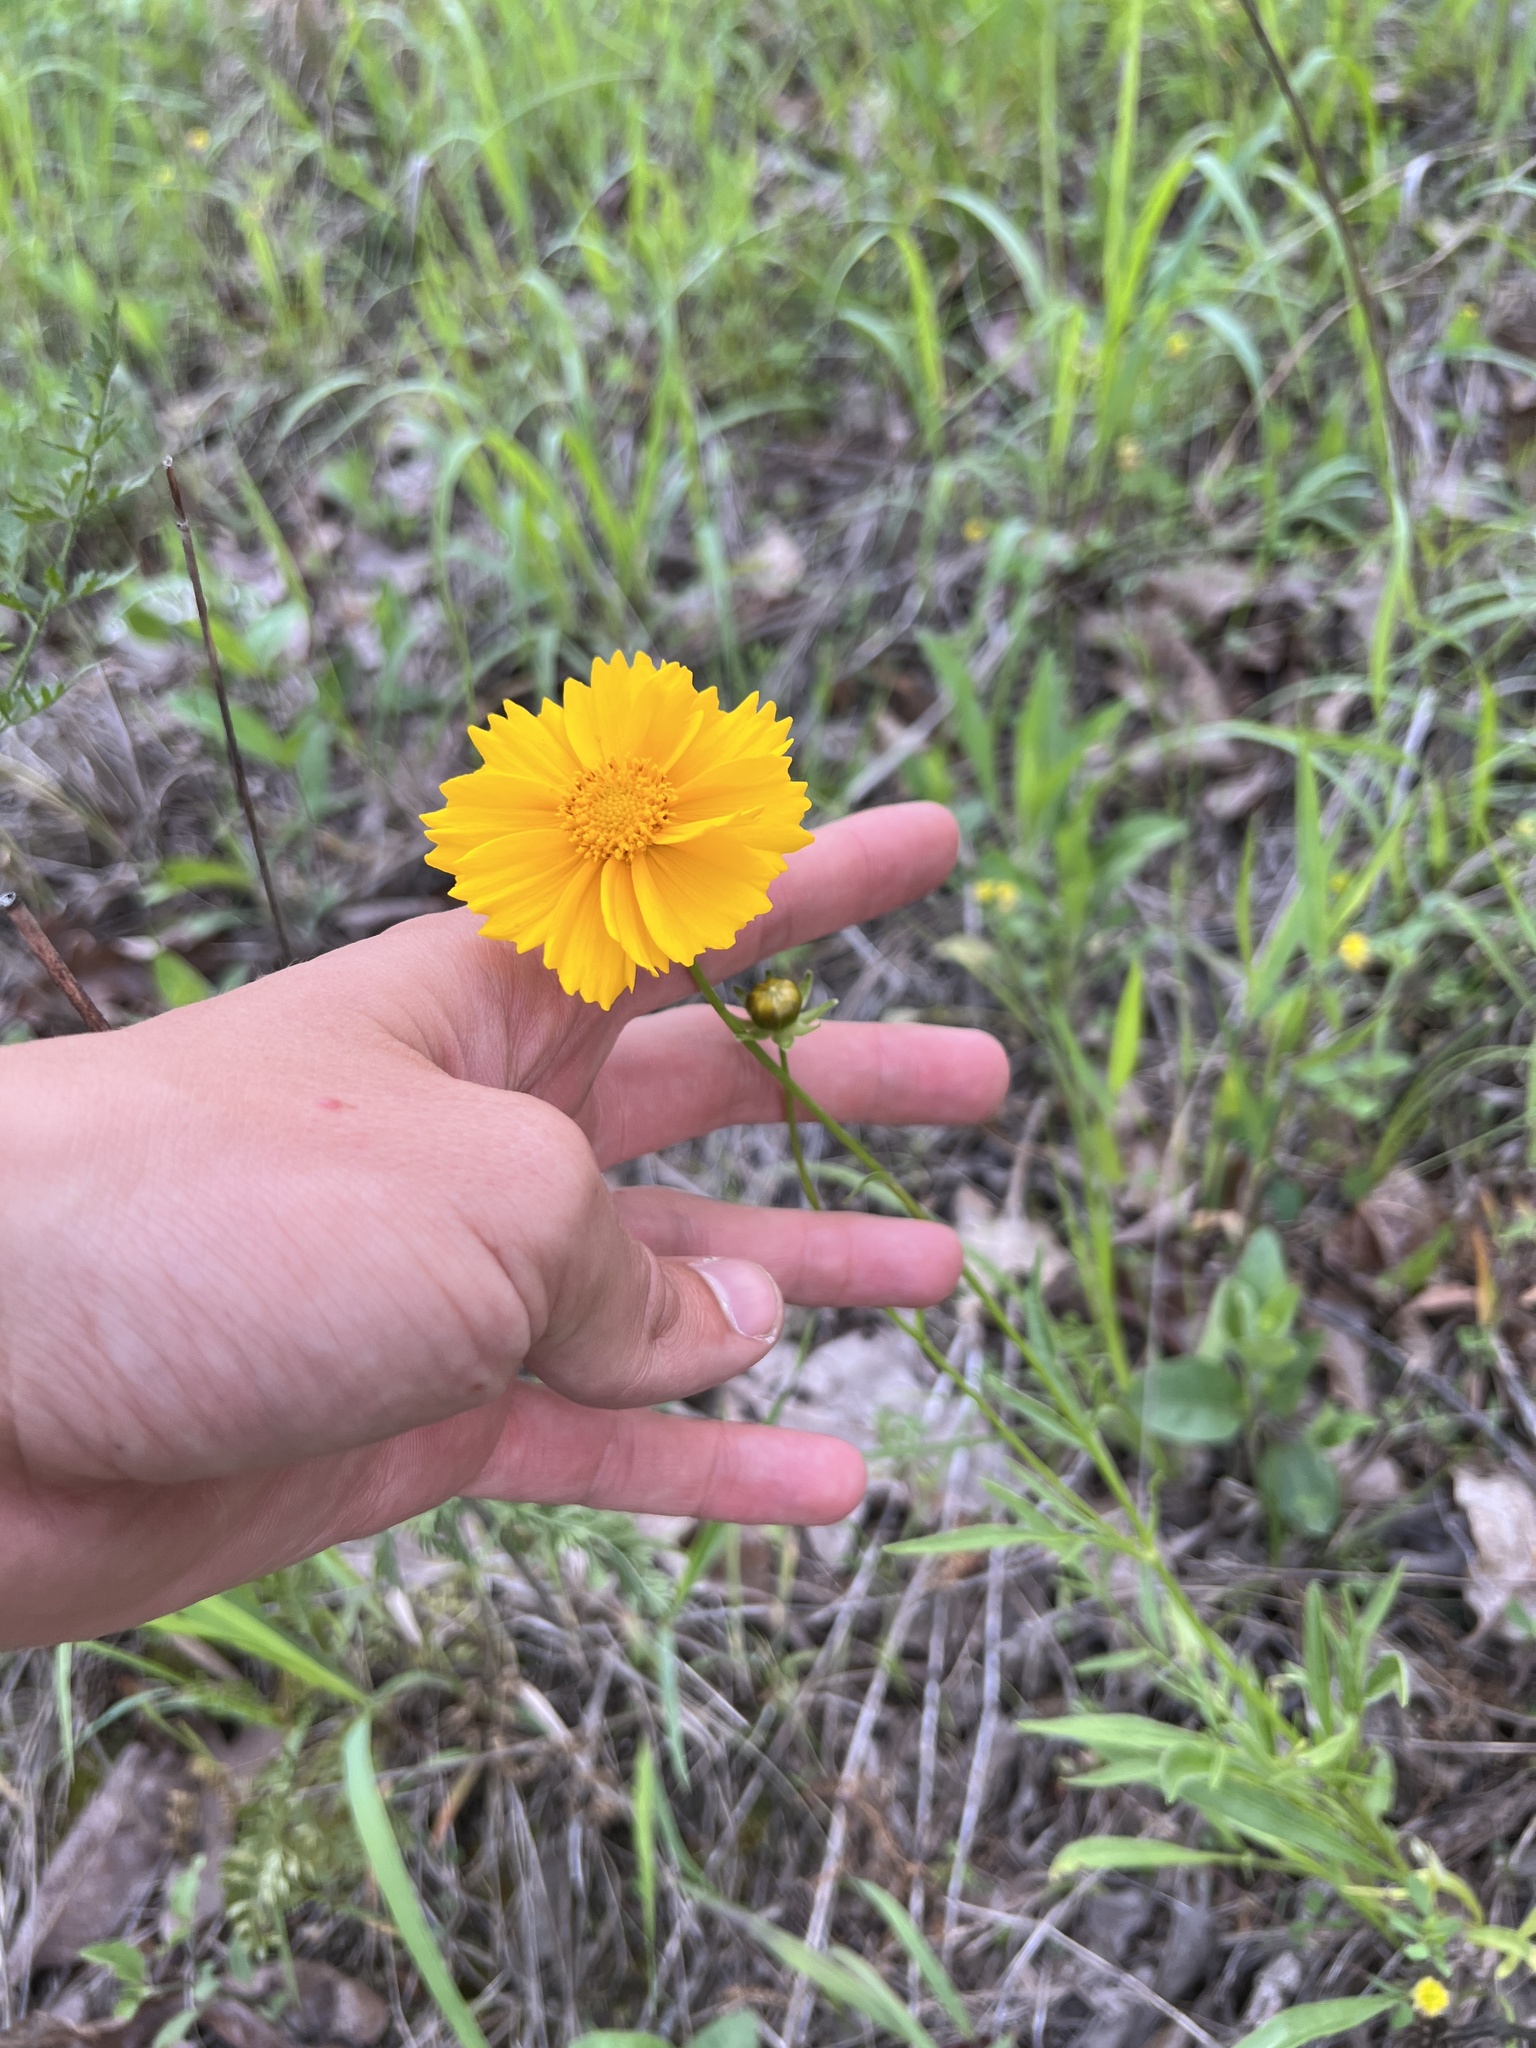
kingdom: Plantae
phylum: Tracheophyta
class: Magnoliopsida
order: Asterales
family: Asteraceae
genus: Coreopsis
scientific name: Coreopsis lanceolata
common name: Garden coreopsis
